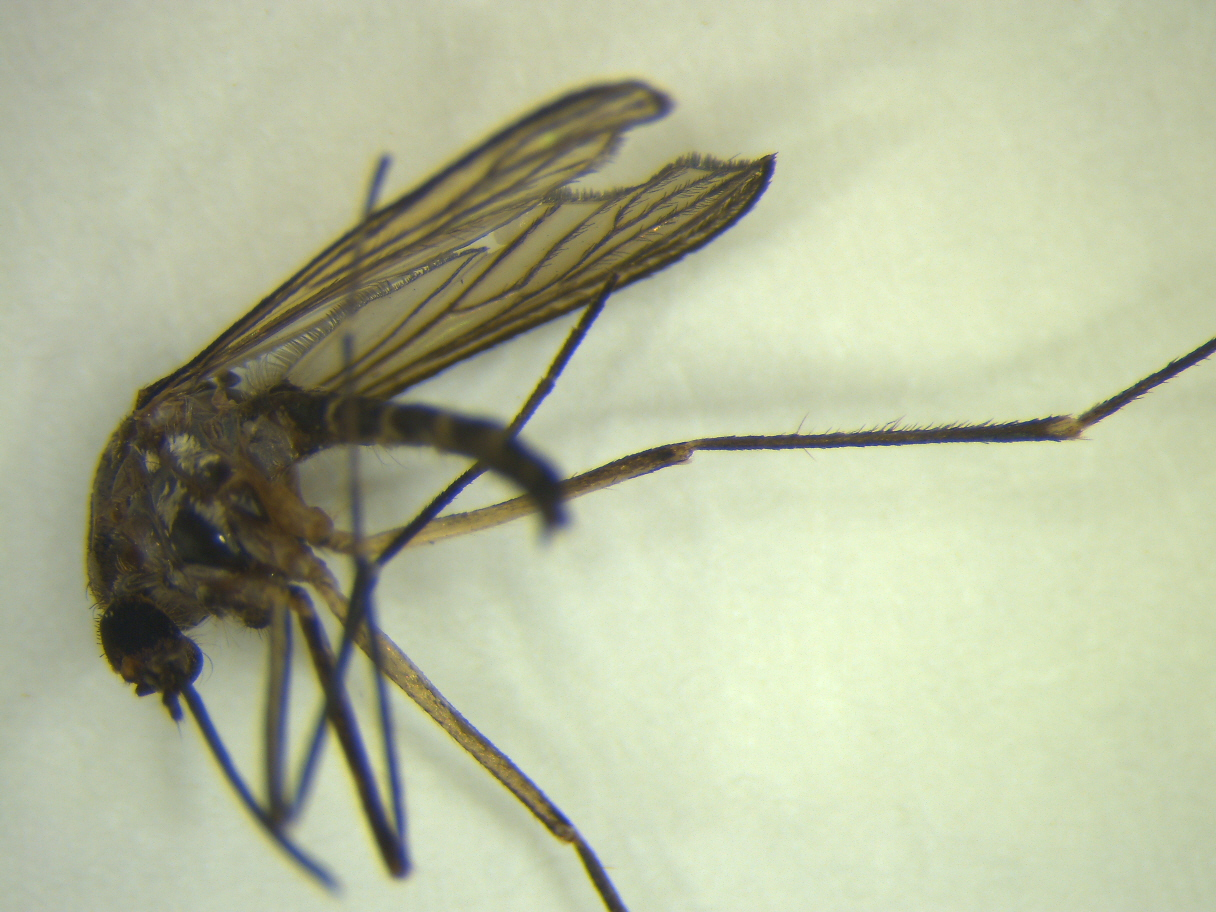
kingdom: Animalia
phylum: Arthropoda
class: Insecta
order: Diptera
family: Culicidae
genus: Aedes
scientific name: Aedes antipodeus
